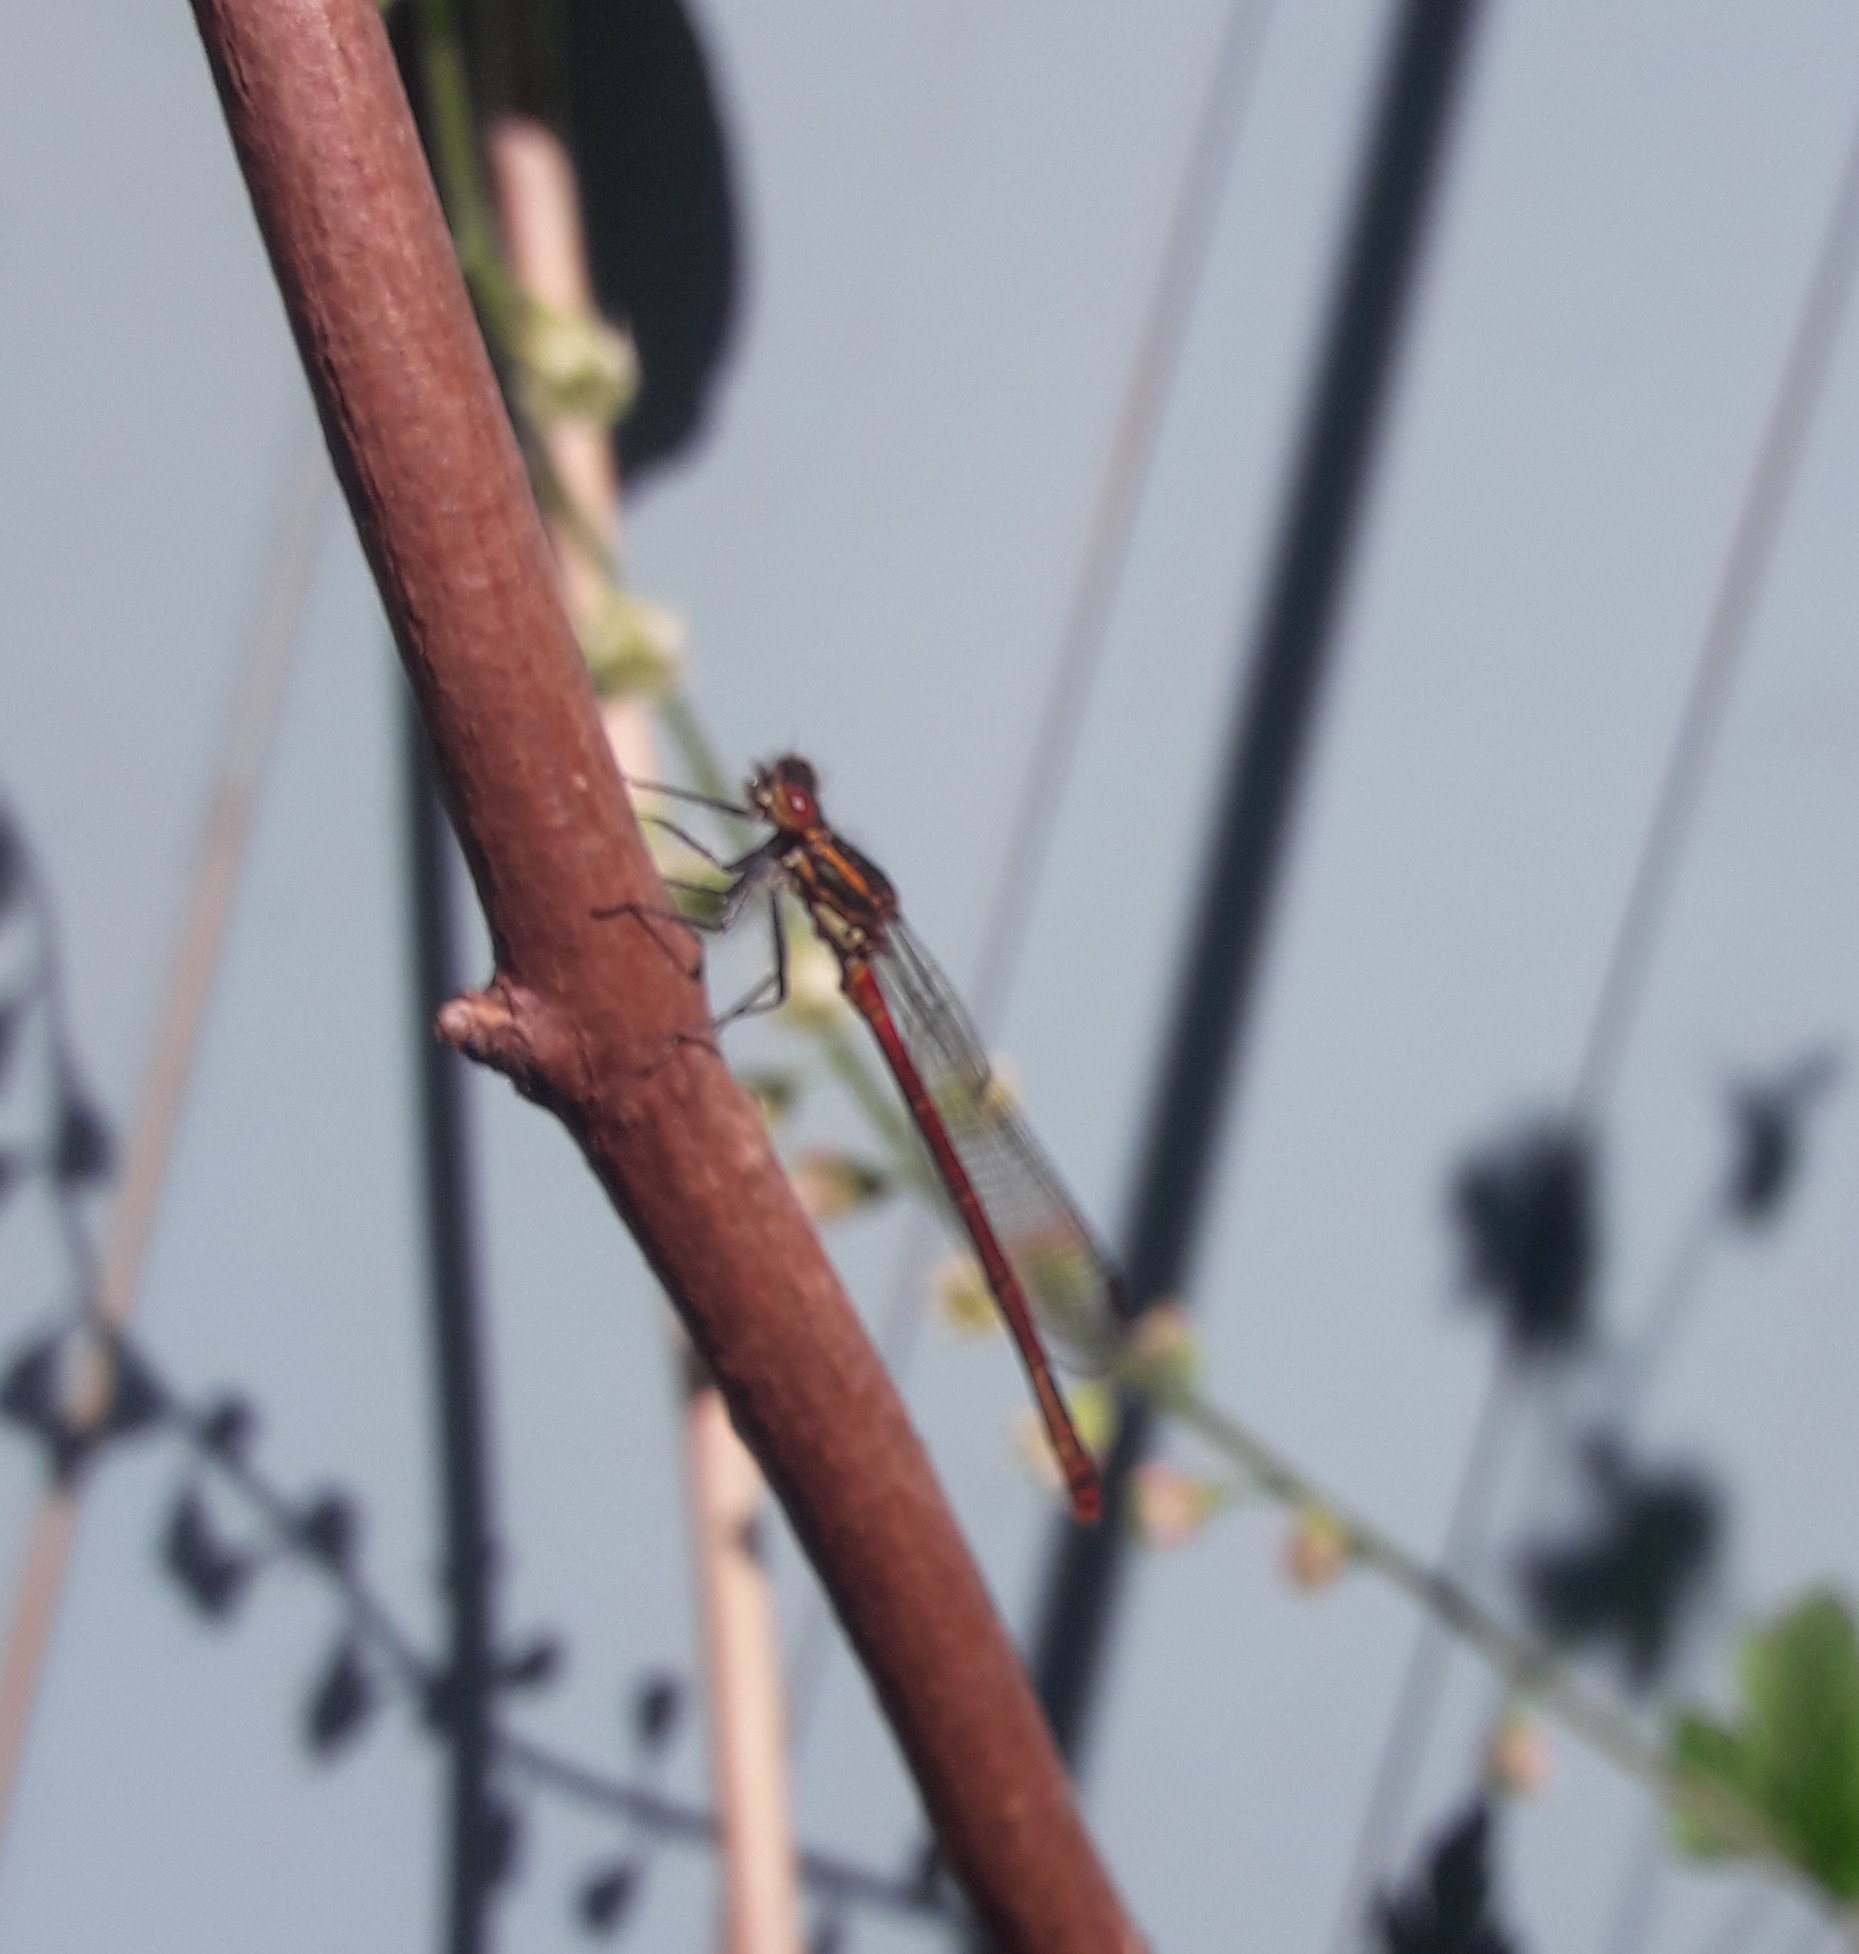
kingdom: Animalia
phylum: Arthropoda
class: Insecta
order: Odonata
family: Coenagrionidae
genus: Pyrrhosoma
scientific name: Pyrrhosoma nymphula
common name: Large red damsel
